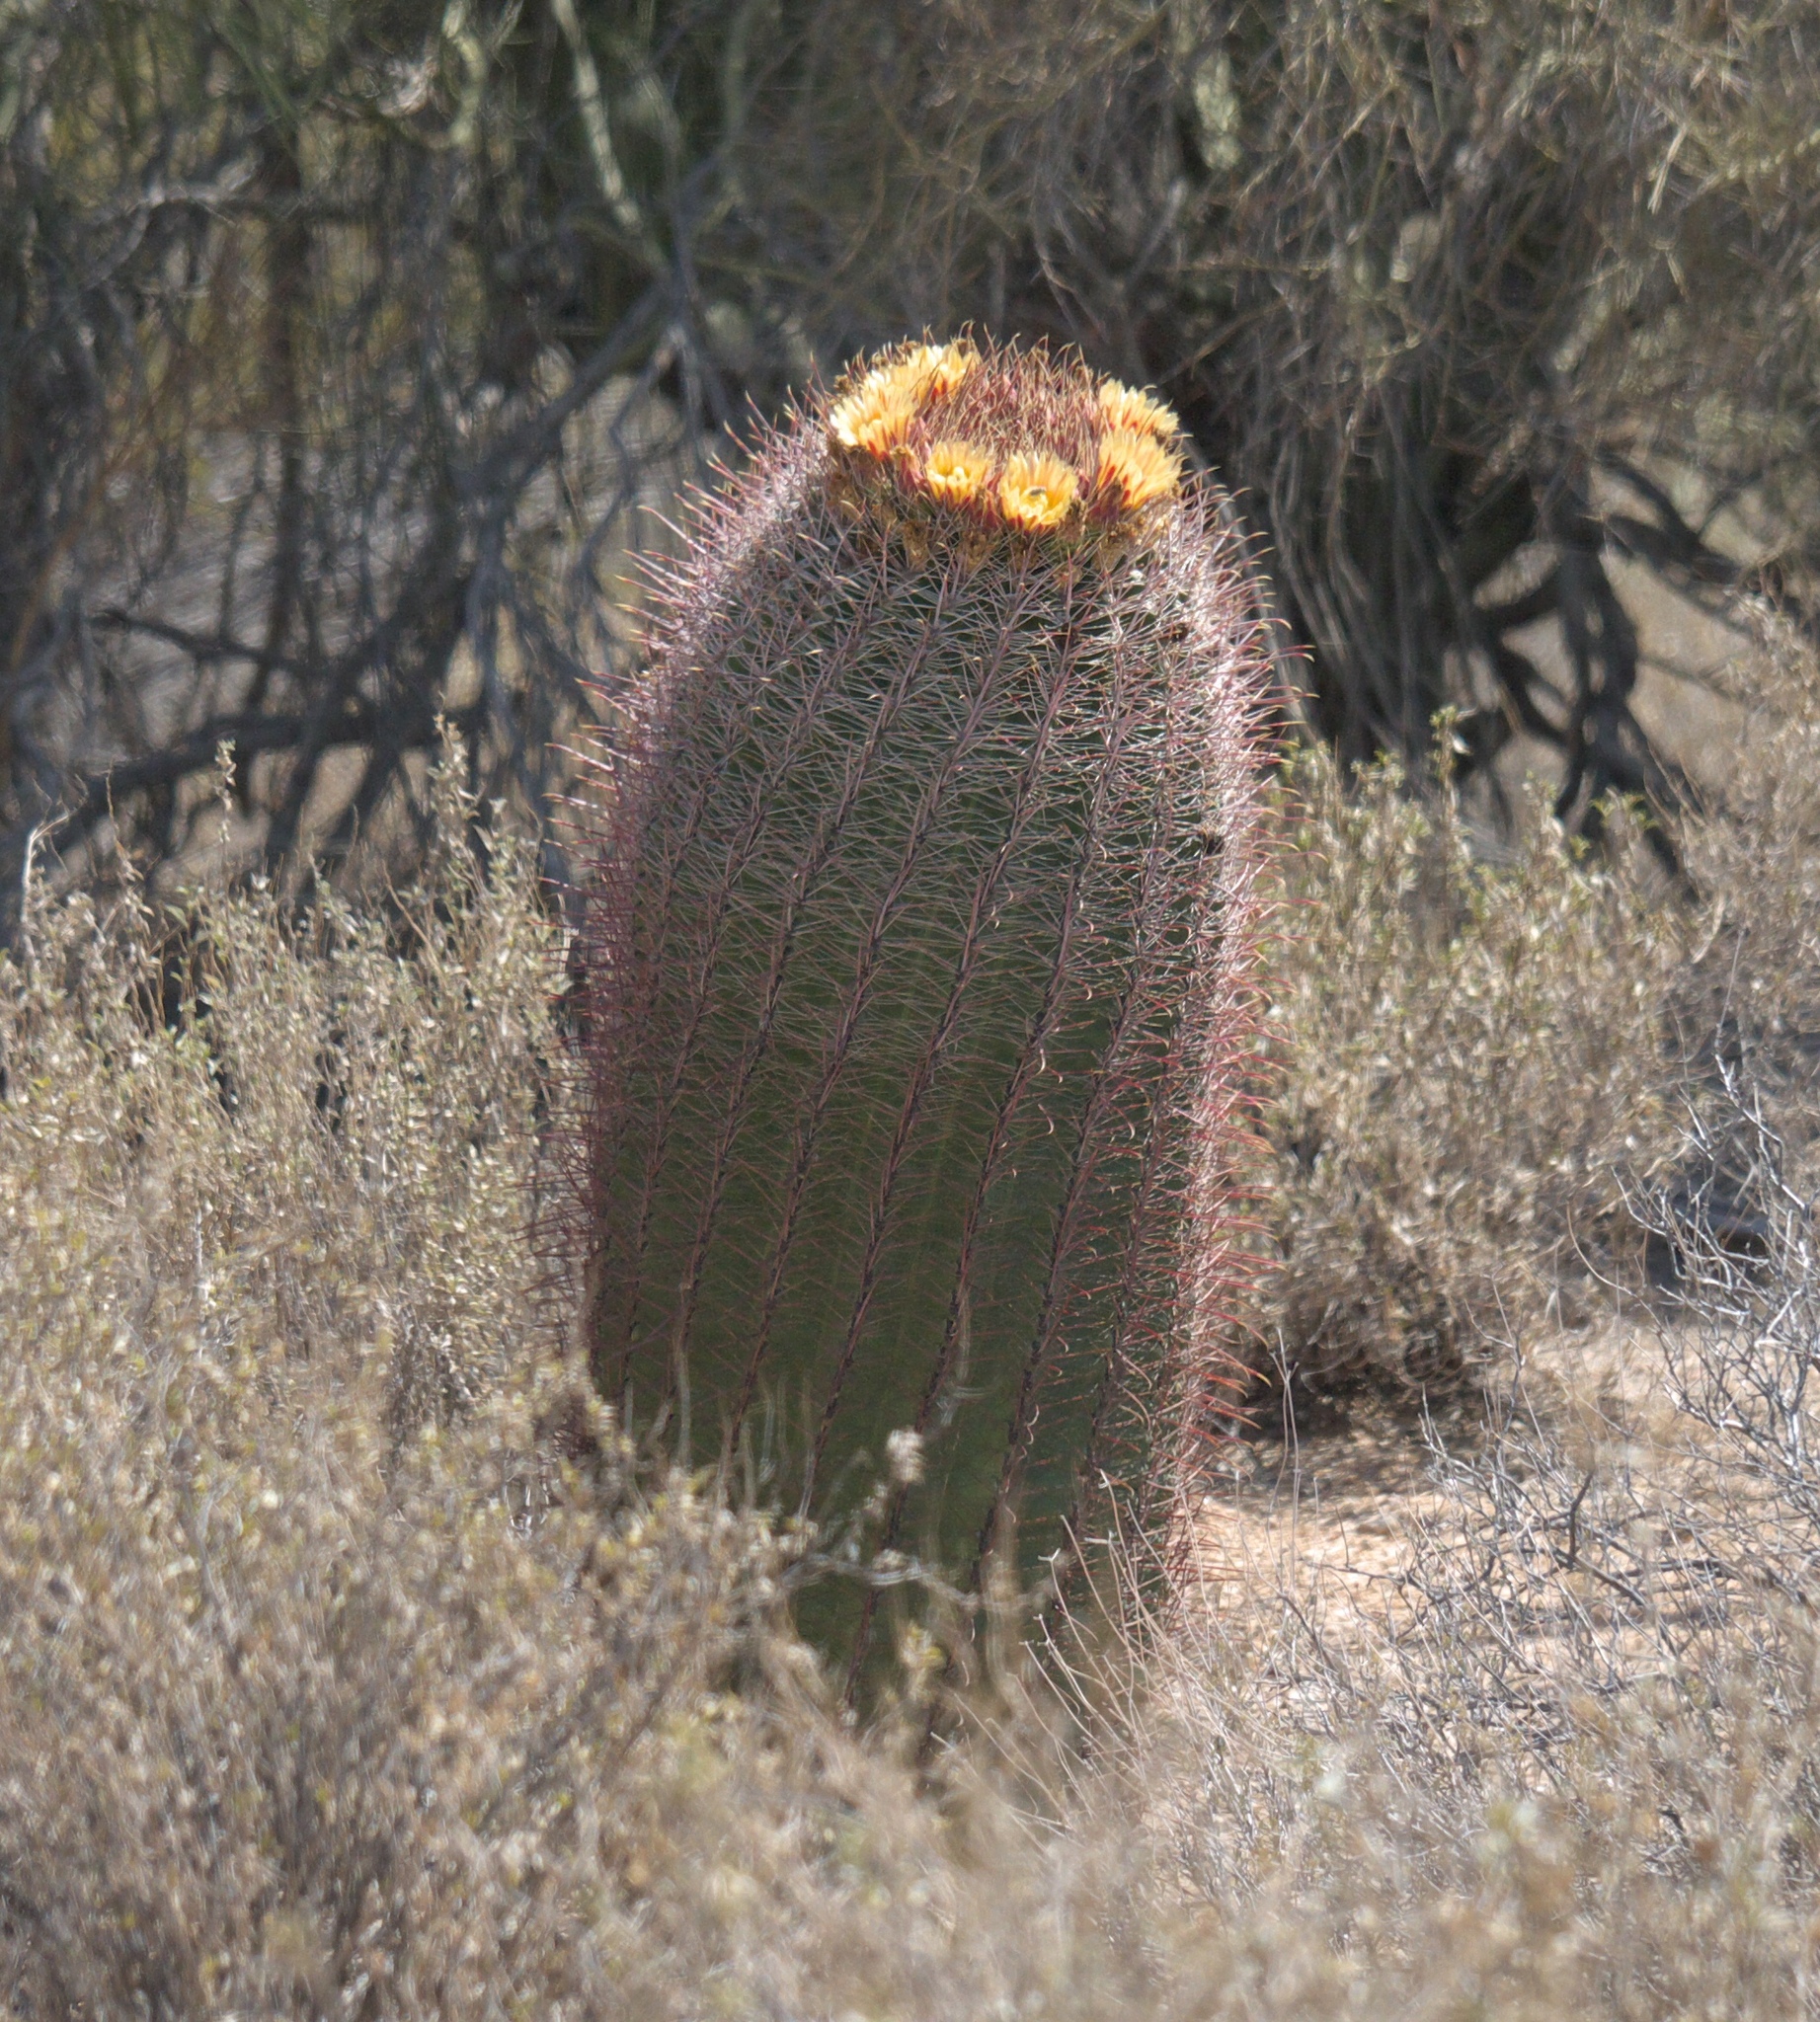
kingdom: Plantae
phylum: Tracheophyta
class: Magnoliopsida
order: Caryophyllales
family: Cactaceae
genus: Ferocactus
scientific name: Ferocactus cylindraceus
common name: California barrel cactus
